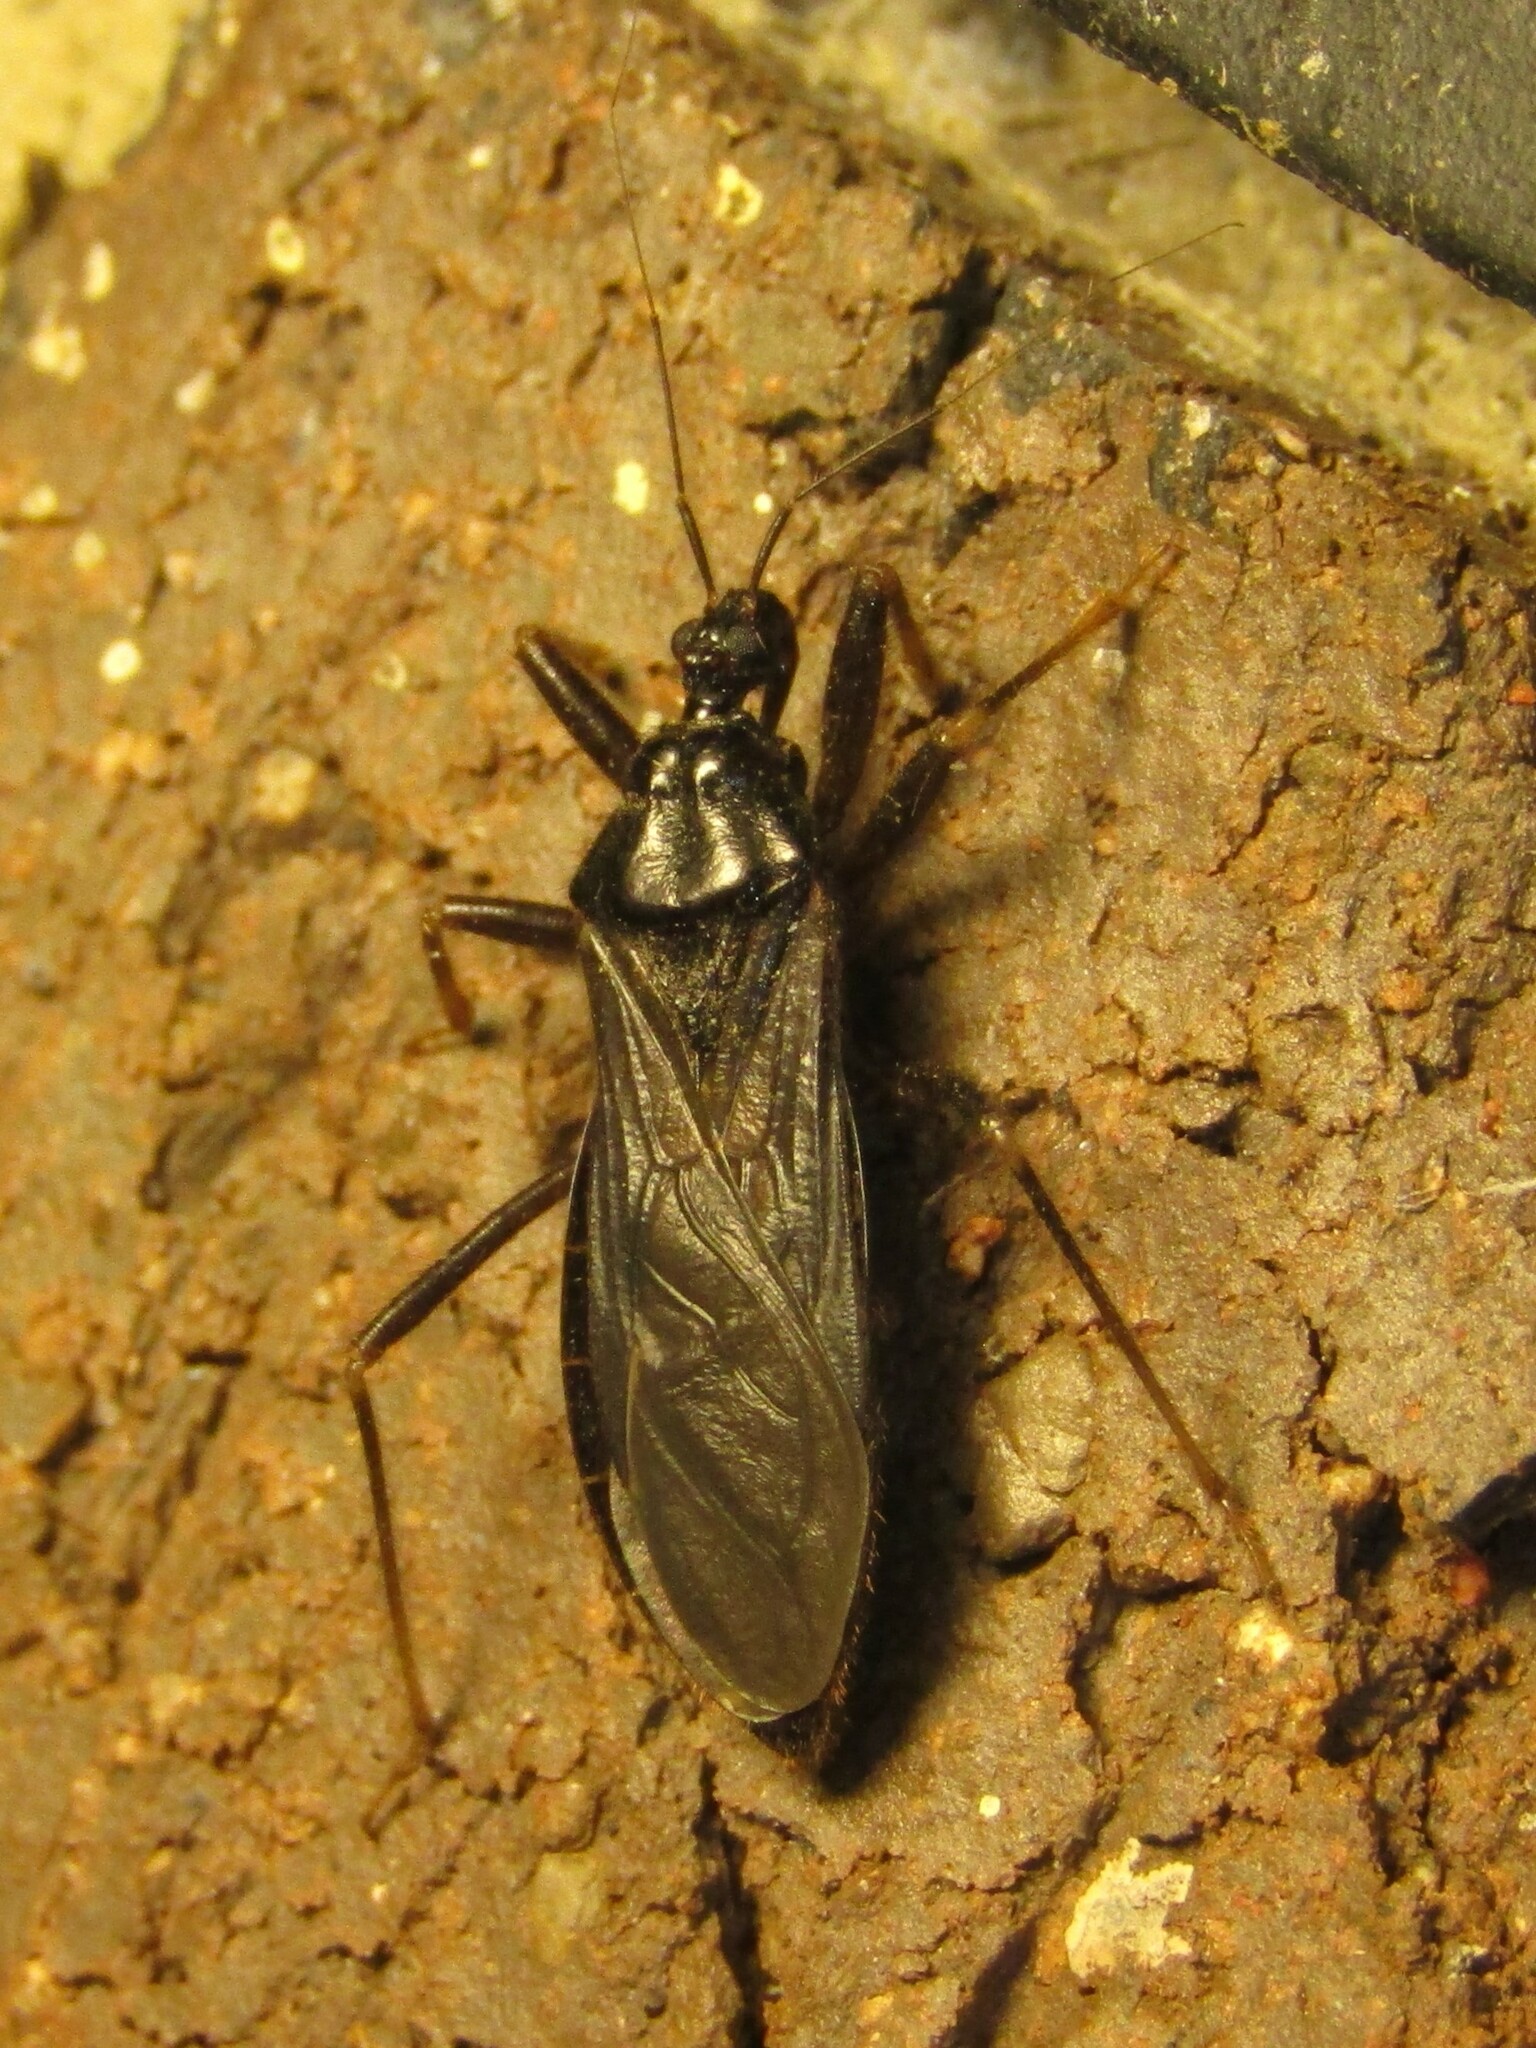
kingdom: Animalia
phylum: Arthropoda
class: Insecta
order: Hemiptera
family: Reduviidae
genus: Reduvius
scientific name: Reduvius personatus
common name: Masked hunter
